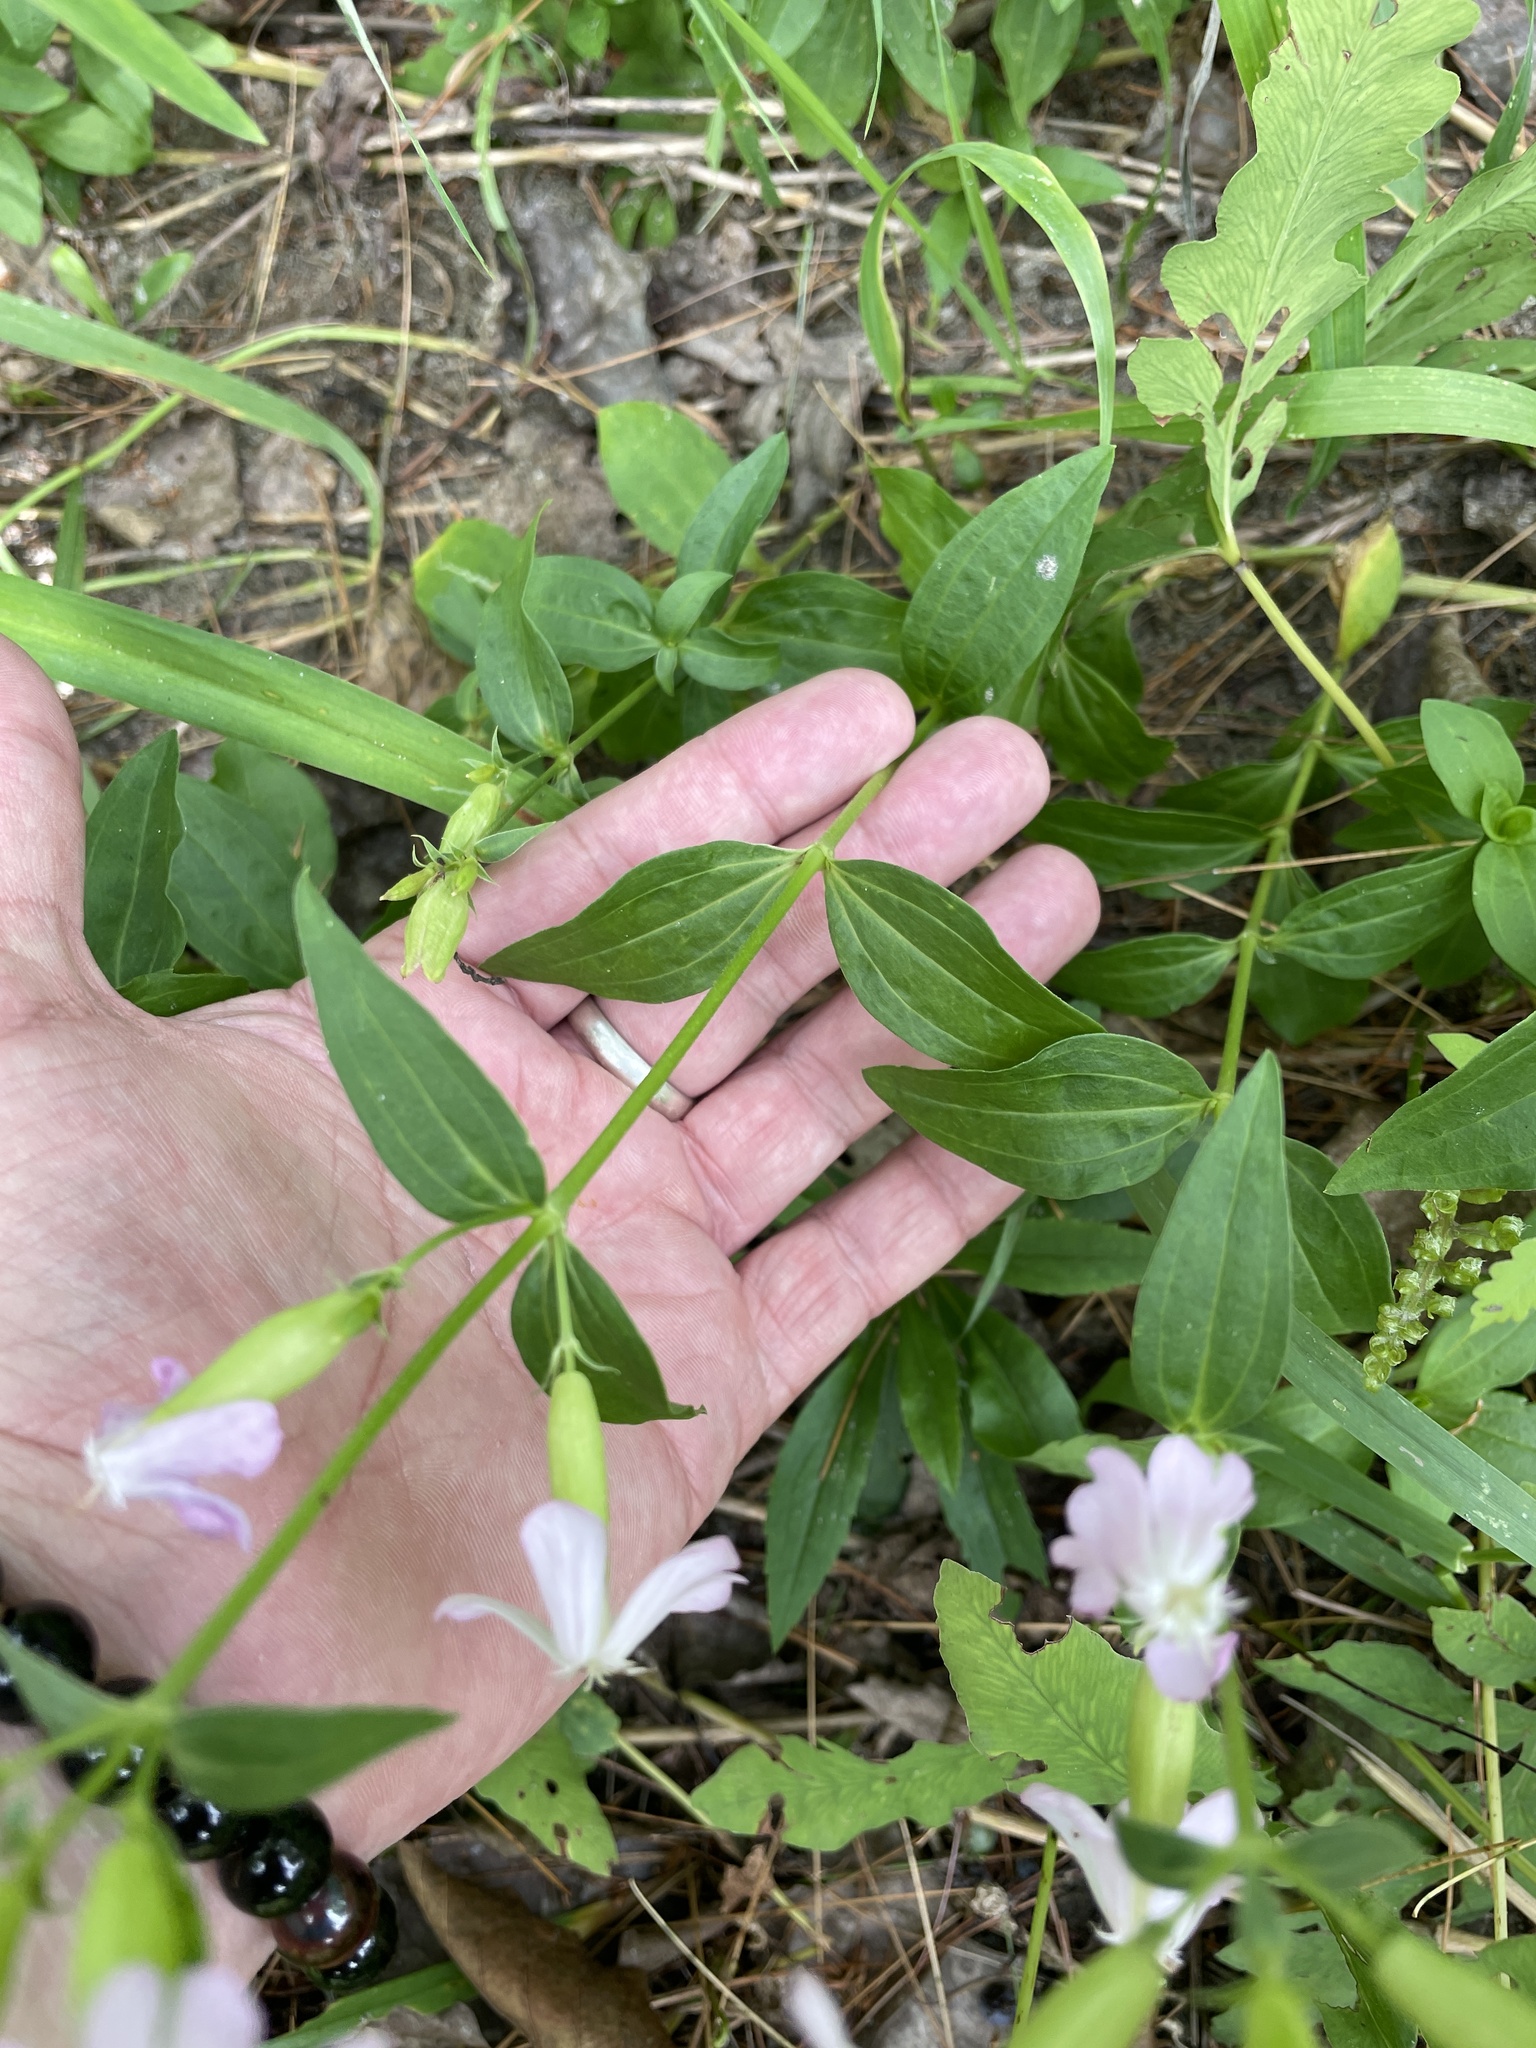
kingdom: Plantae
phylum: Tracheophyta
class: Magnoliopsida
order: Caryophyllales
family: Caryophyllaceae
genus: Saponaria
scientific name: Saponaria officinalis
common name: Soapwort
